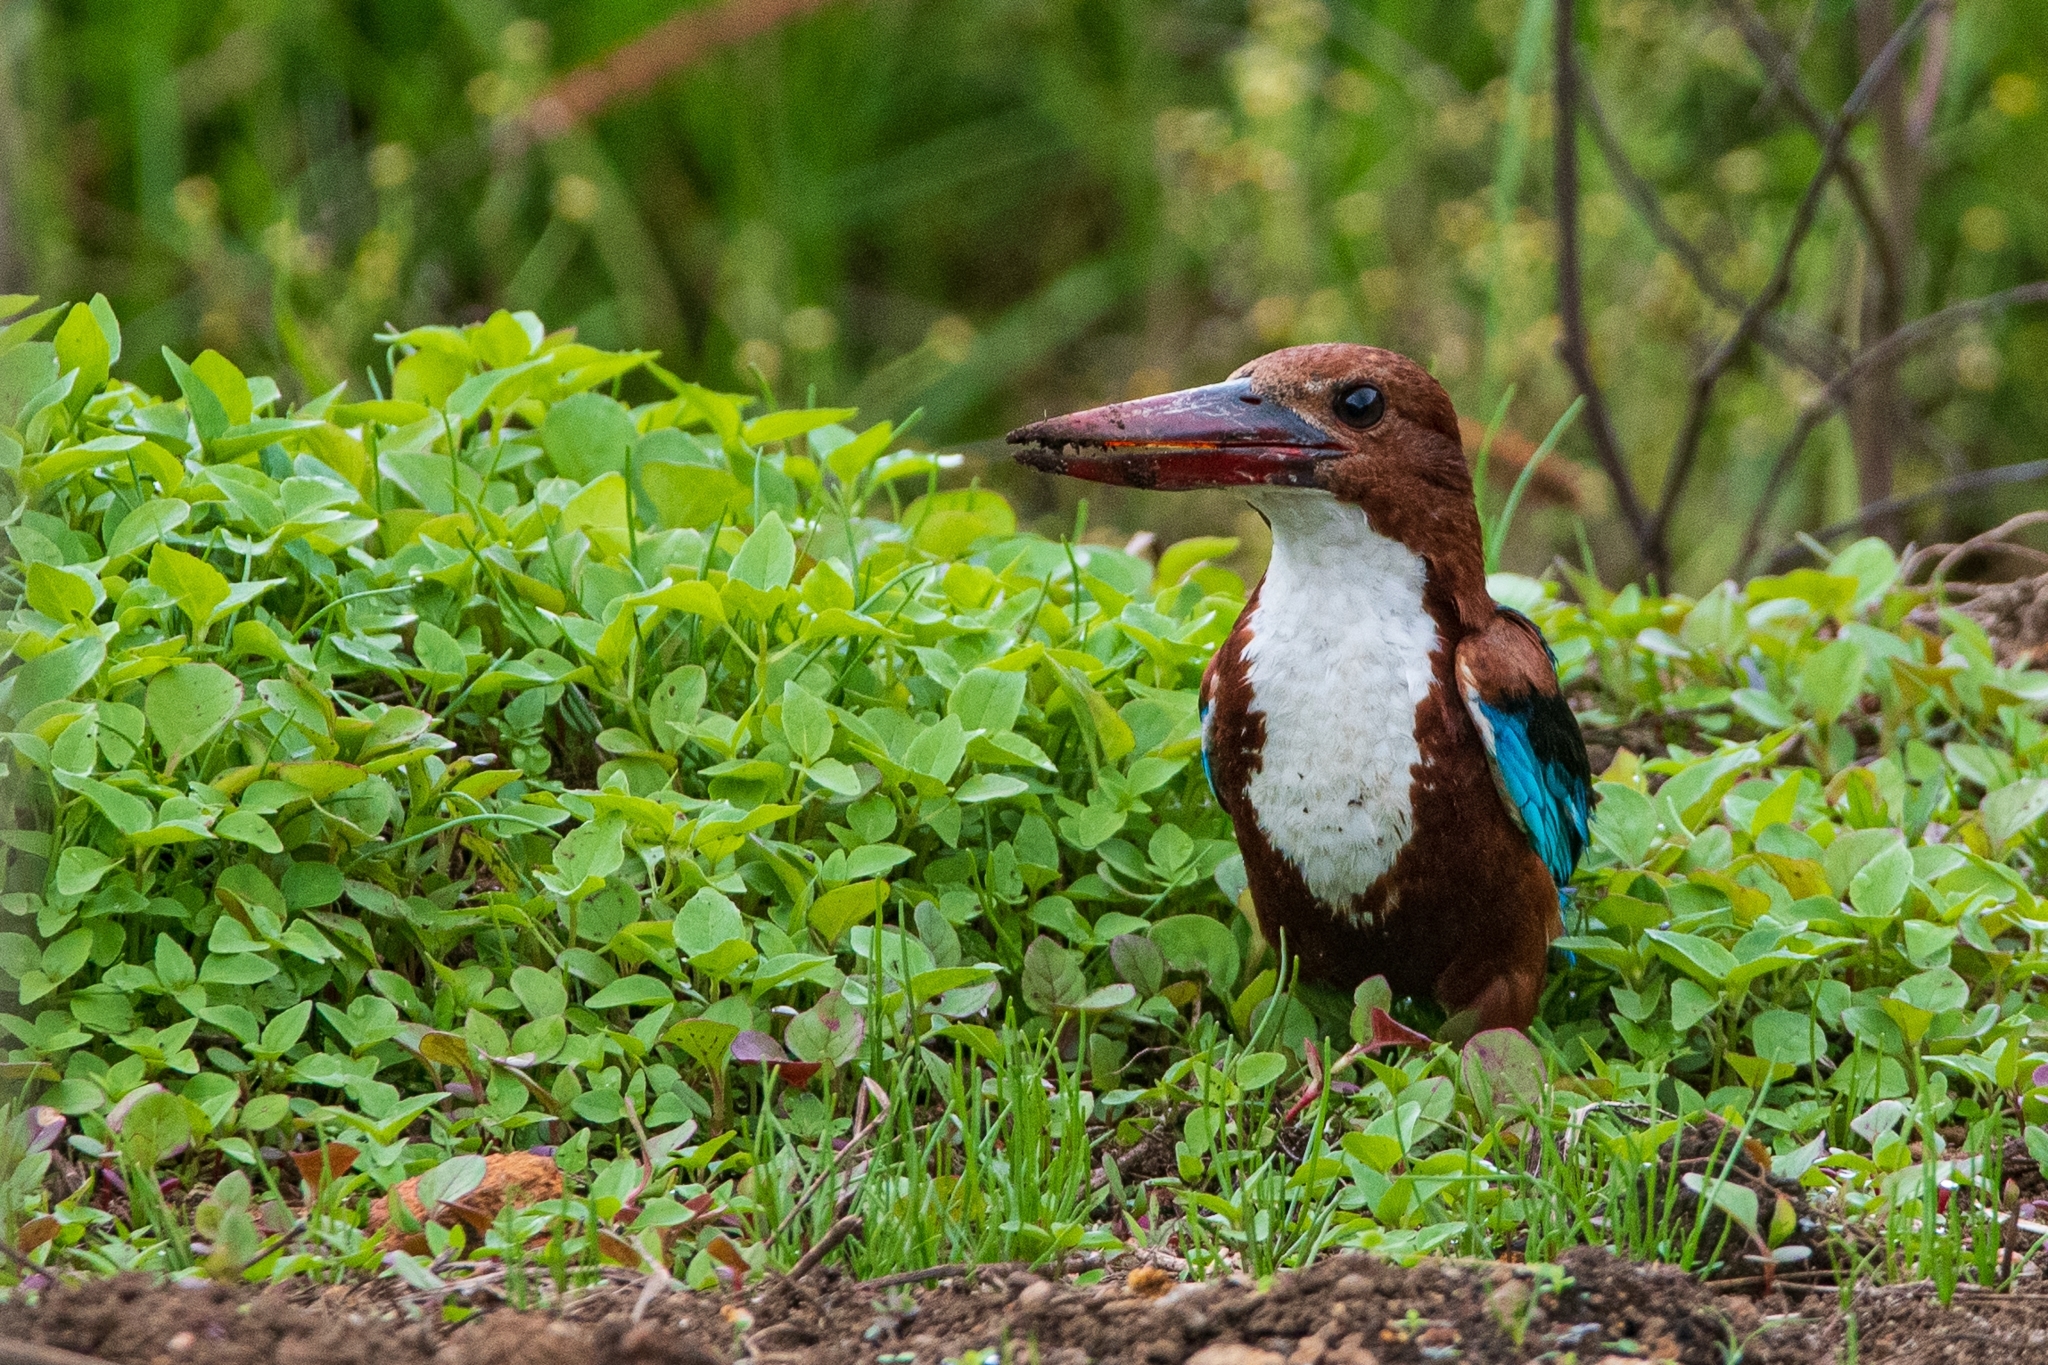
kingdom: Animalia
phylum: Chordata
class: Aves
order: Coraciiformes
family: Alcedinidae
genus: Halcyon
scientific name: Halcyon smyrnensis
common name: White-throated kingfisher
